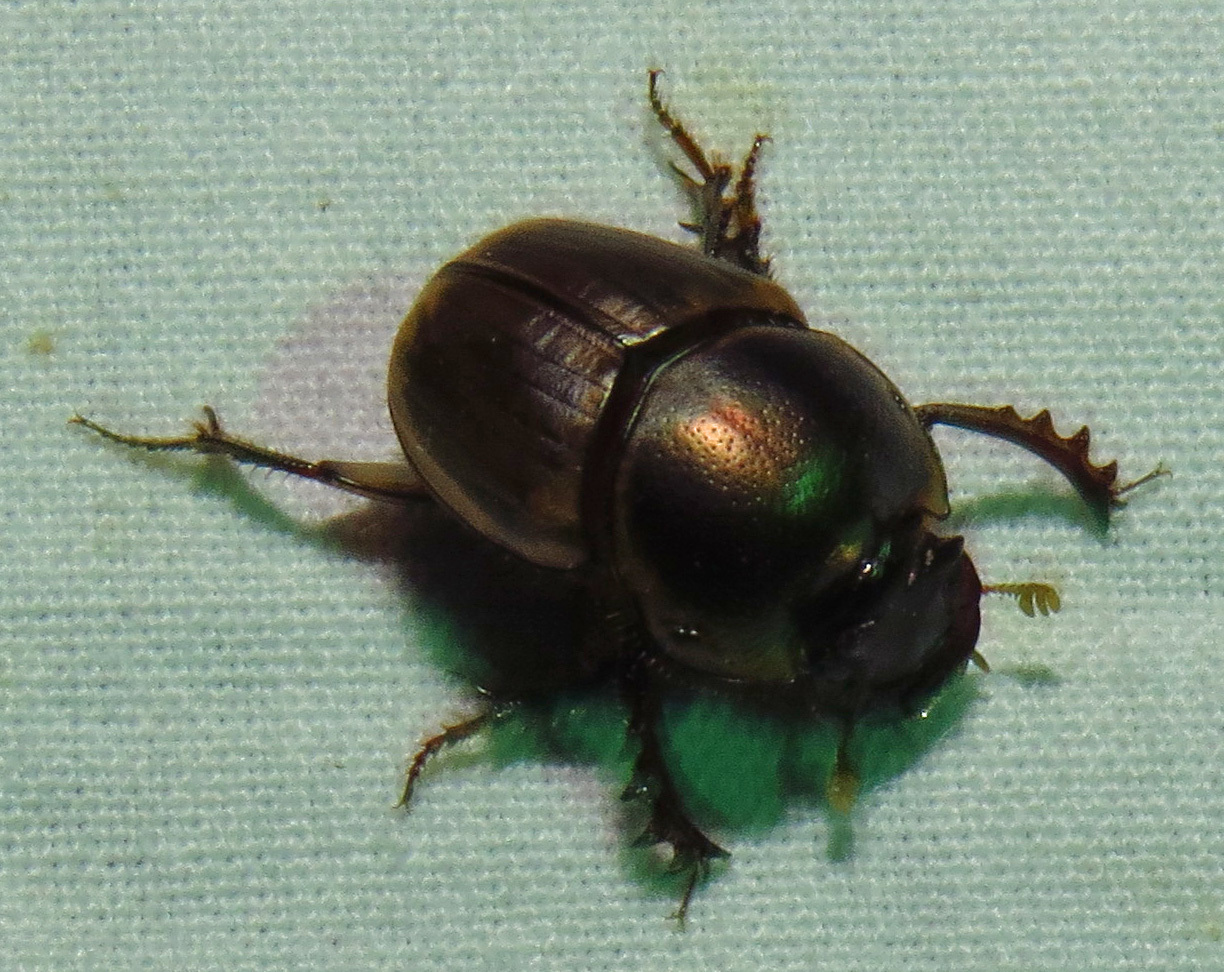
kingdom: Animalia
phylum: Arthropoda
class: Insecta
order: Coleoptera
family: Scarabaeidae
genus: Digitonthophagus
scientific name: Digitonthophagus gazella
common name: Brown dung beetle
